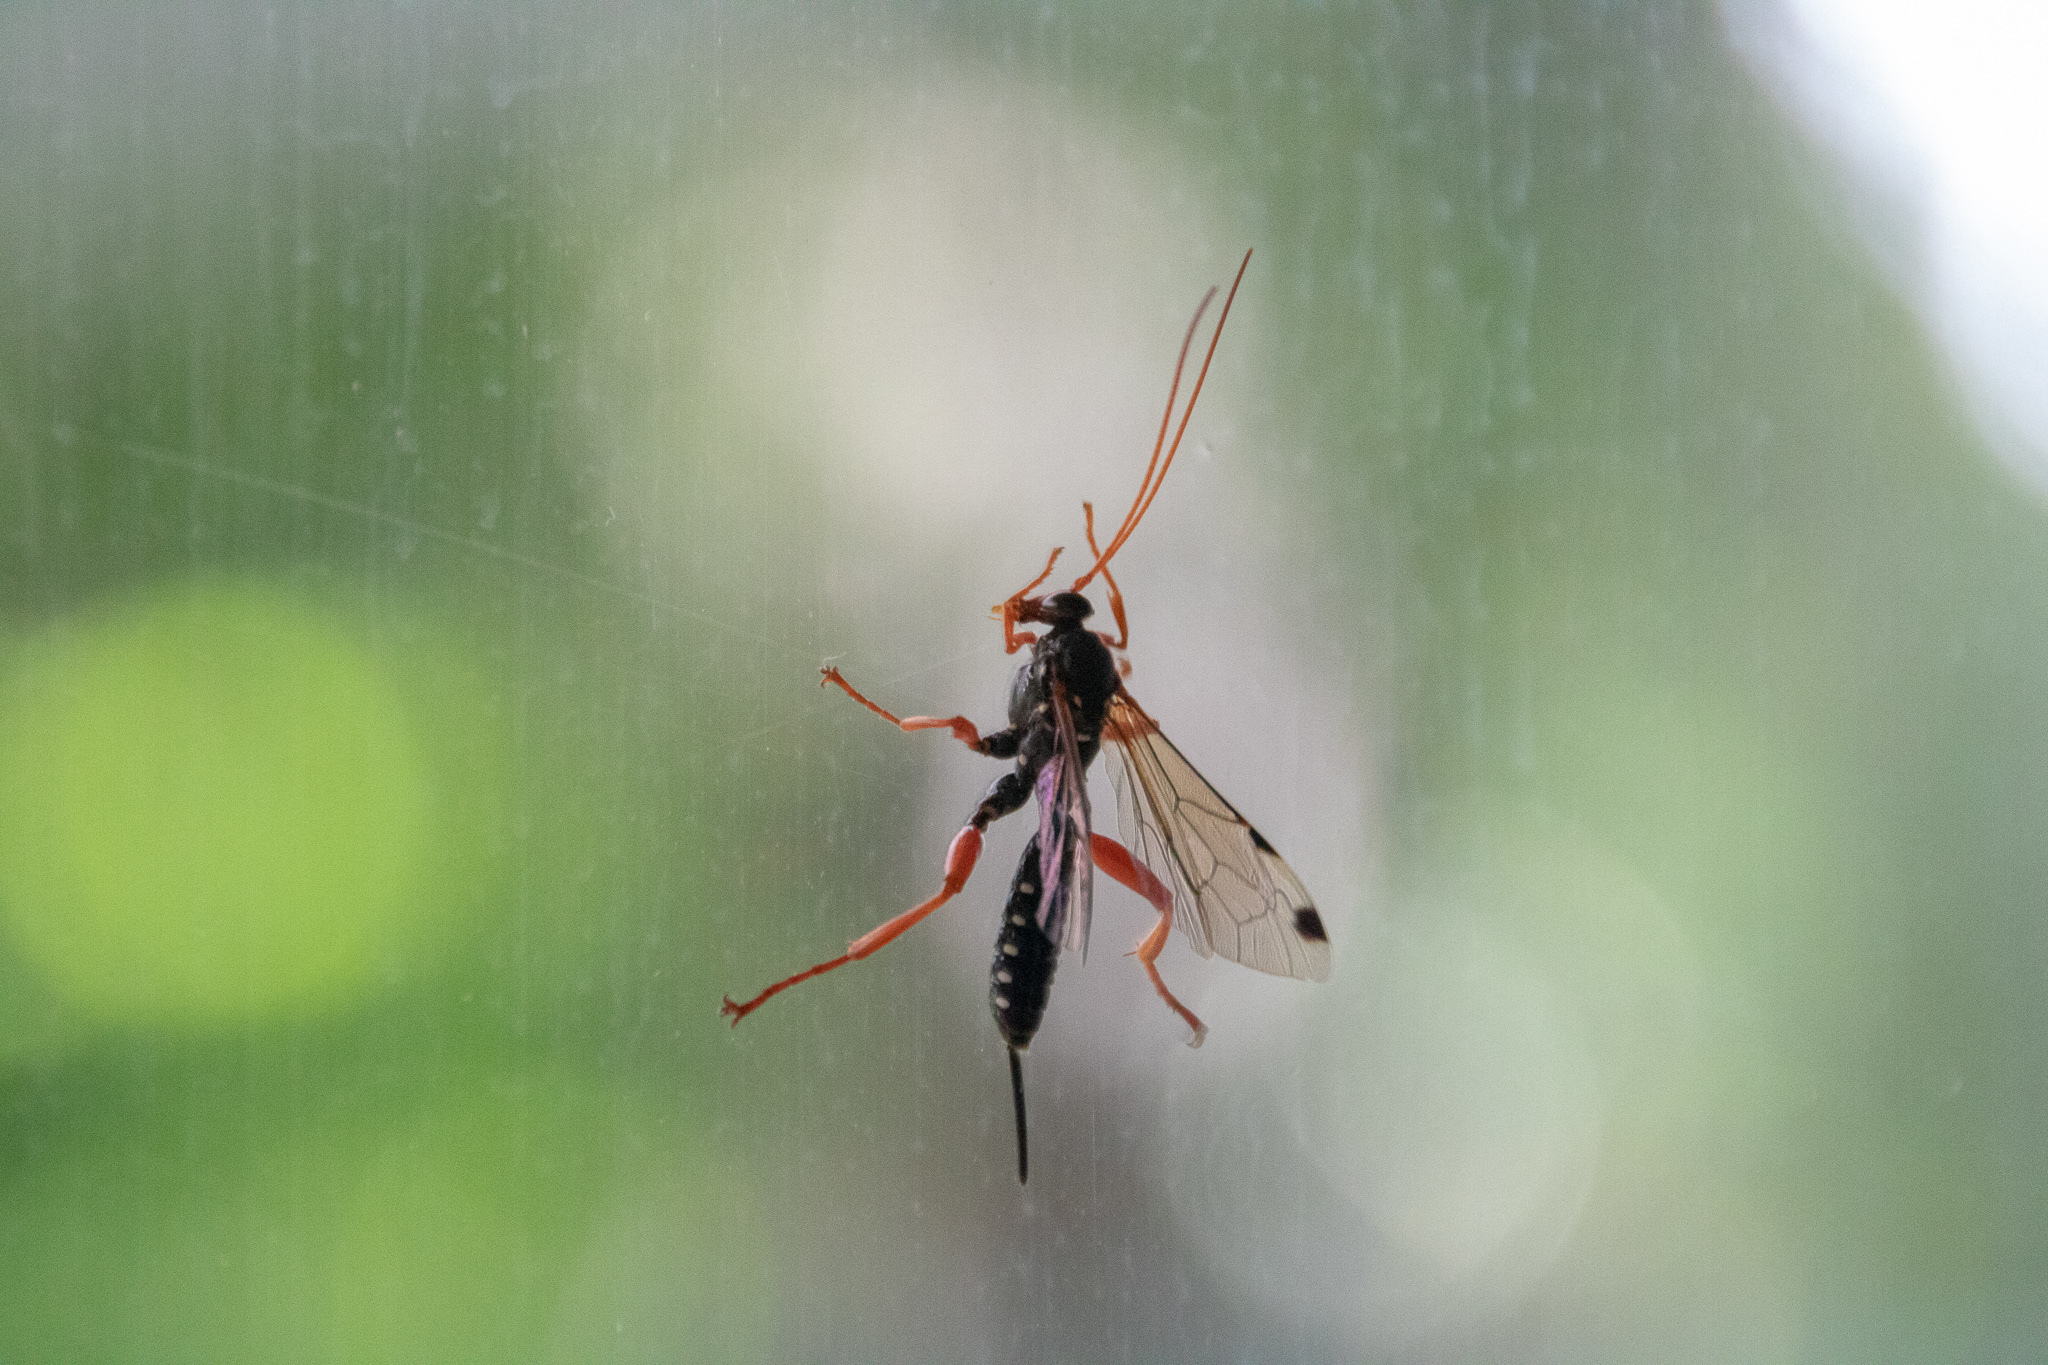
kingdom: Animalia
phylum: Arthropoda
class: Insecta
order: Hymenoptera
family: Ichneumonidae
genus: Echthromorpha
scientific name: Echthromorpha intricatoria
